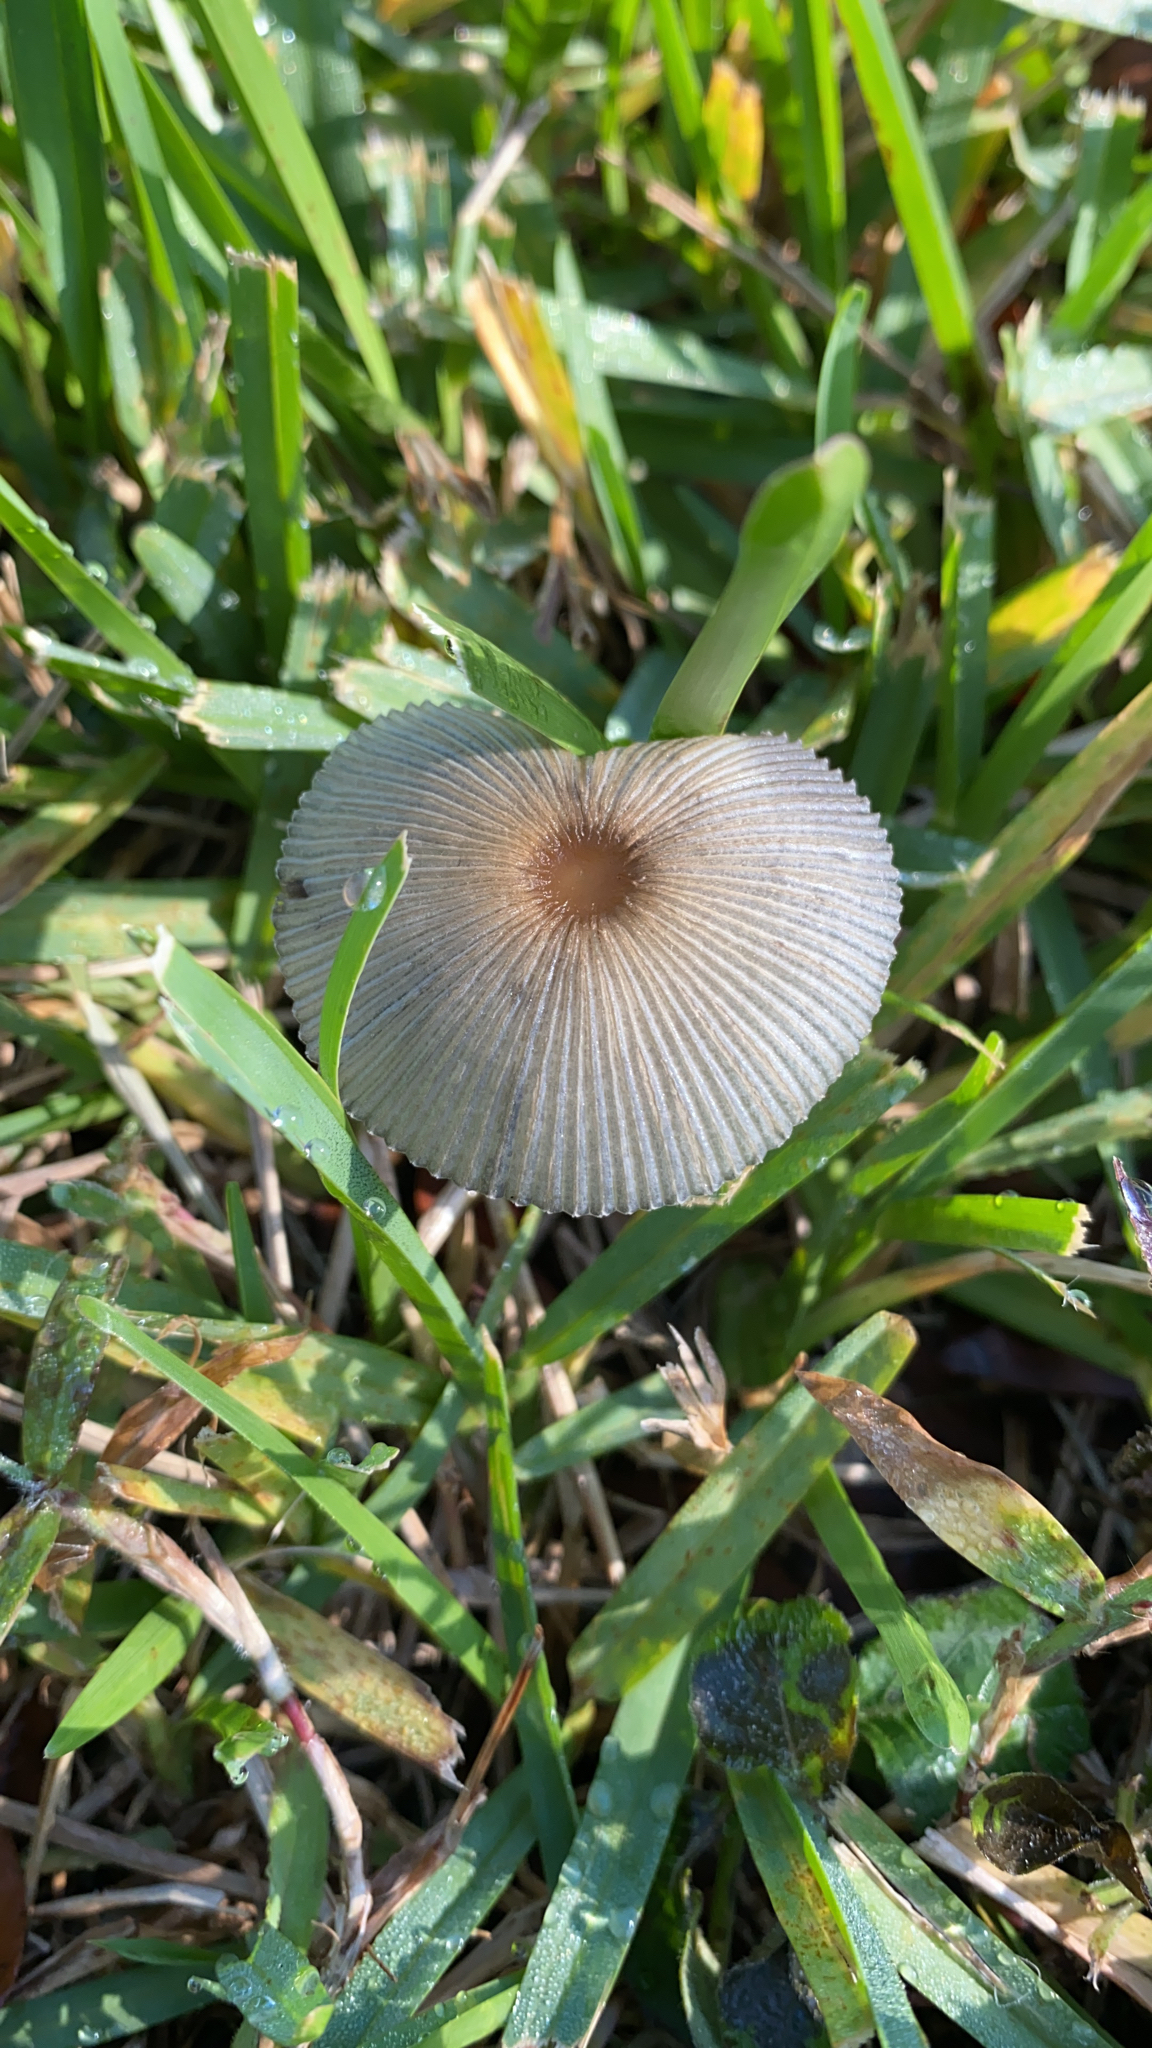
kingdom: Fungi
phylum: Basidiomycota
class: Agaricomycetes
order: Agaricales
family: Psathyrellaceae
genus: Parasola
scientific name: Parasola plicatilis
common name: Pleated inkcap
